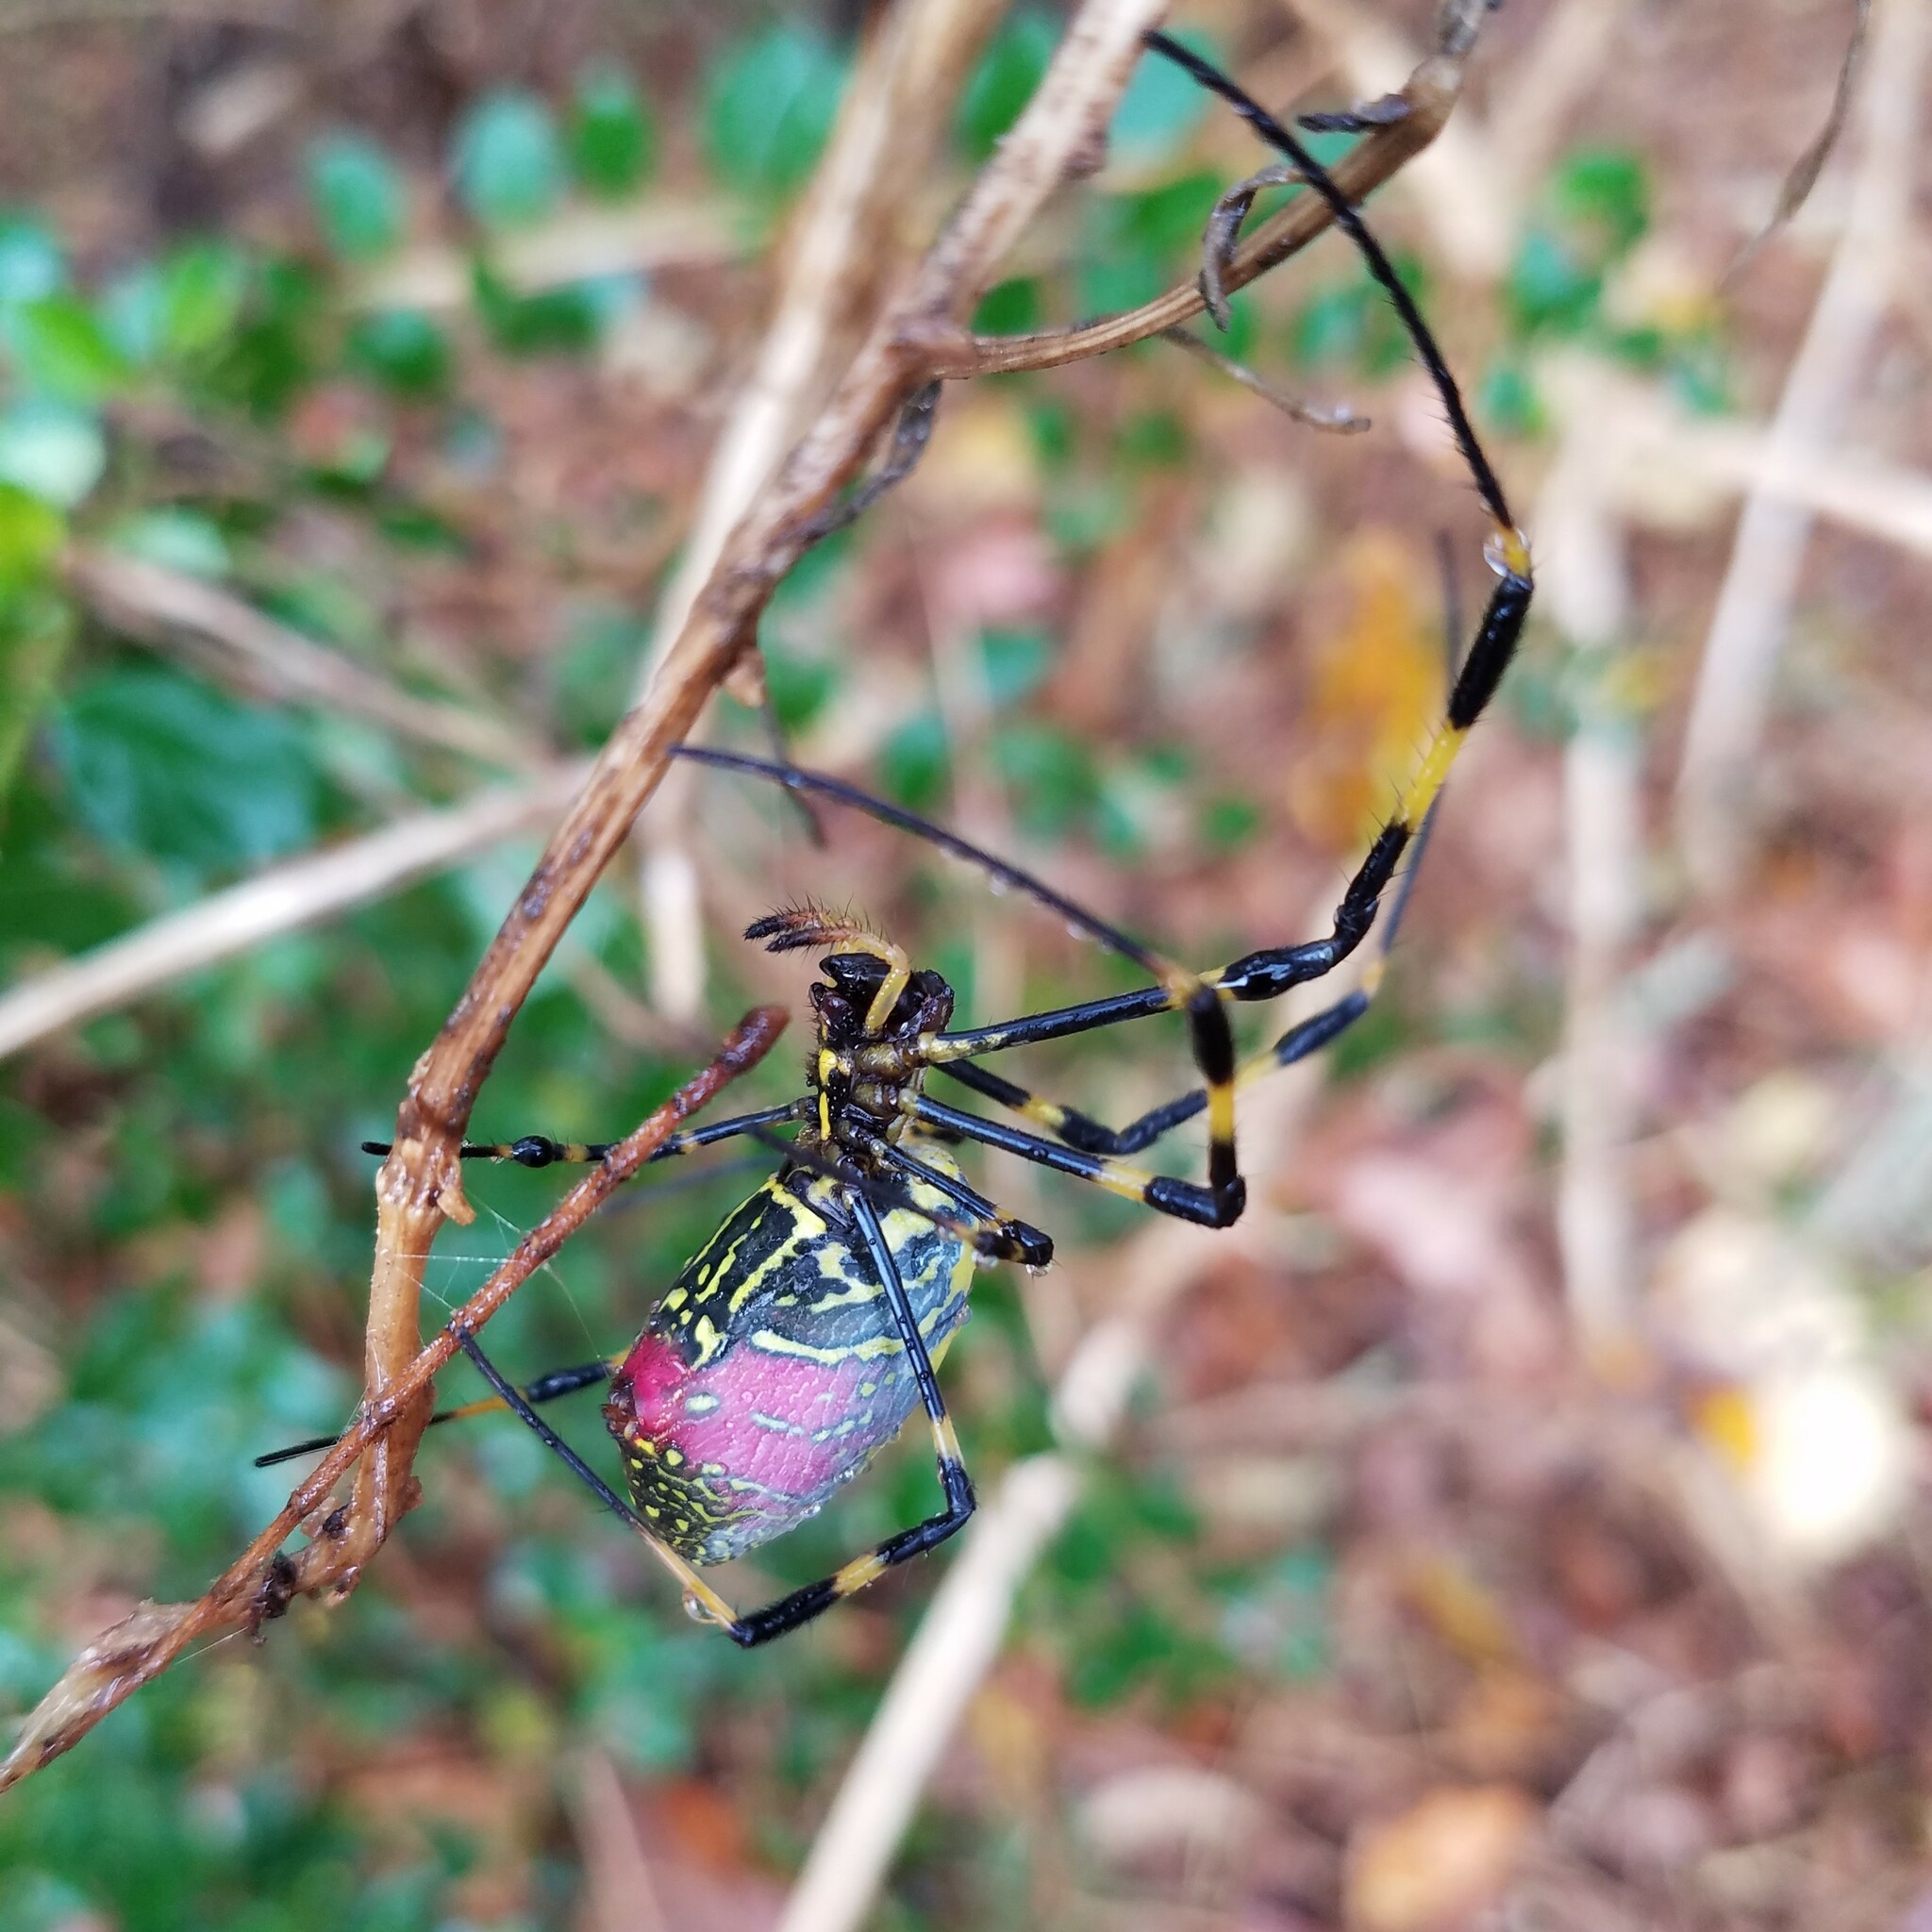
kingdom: Animalia
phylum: Arthropoda
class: Arachnida
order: Araneae
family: Araneidae
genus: Trichonephila
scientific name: Trichonephila clavata
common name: Jorō spider
